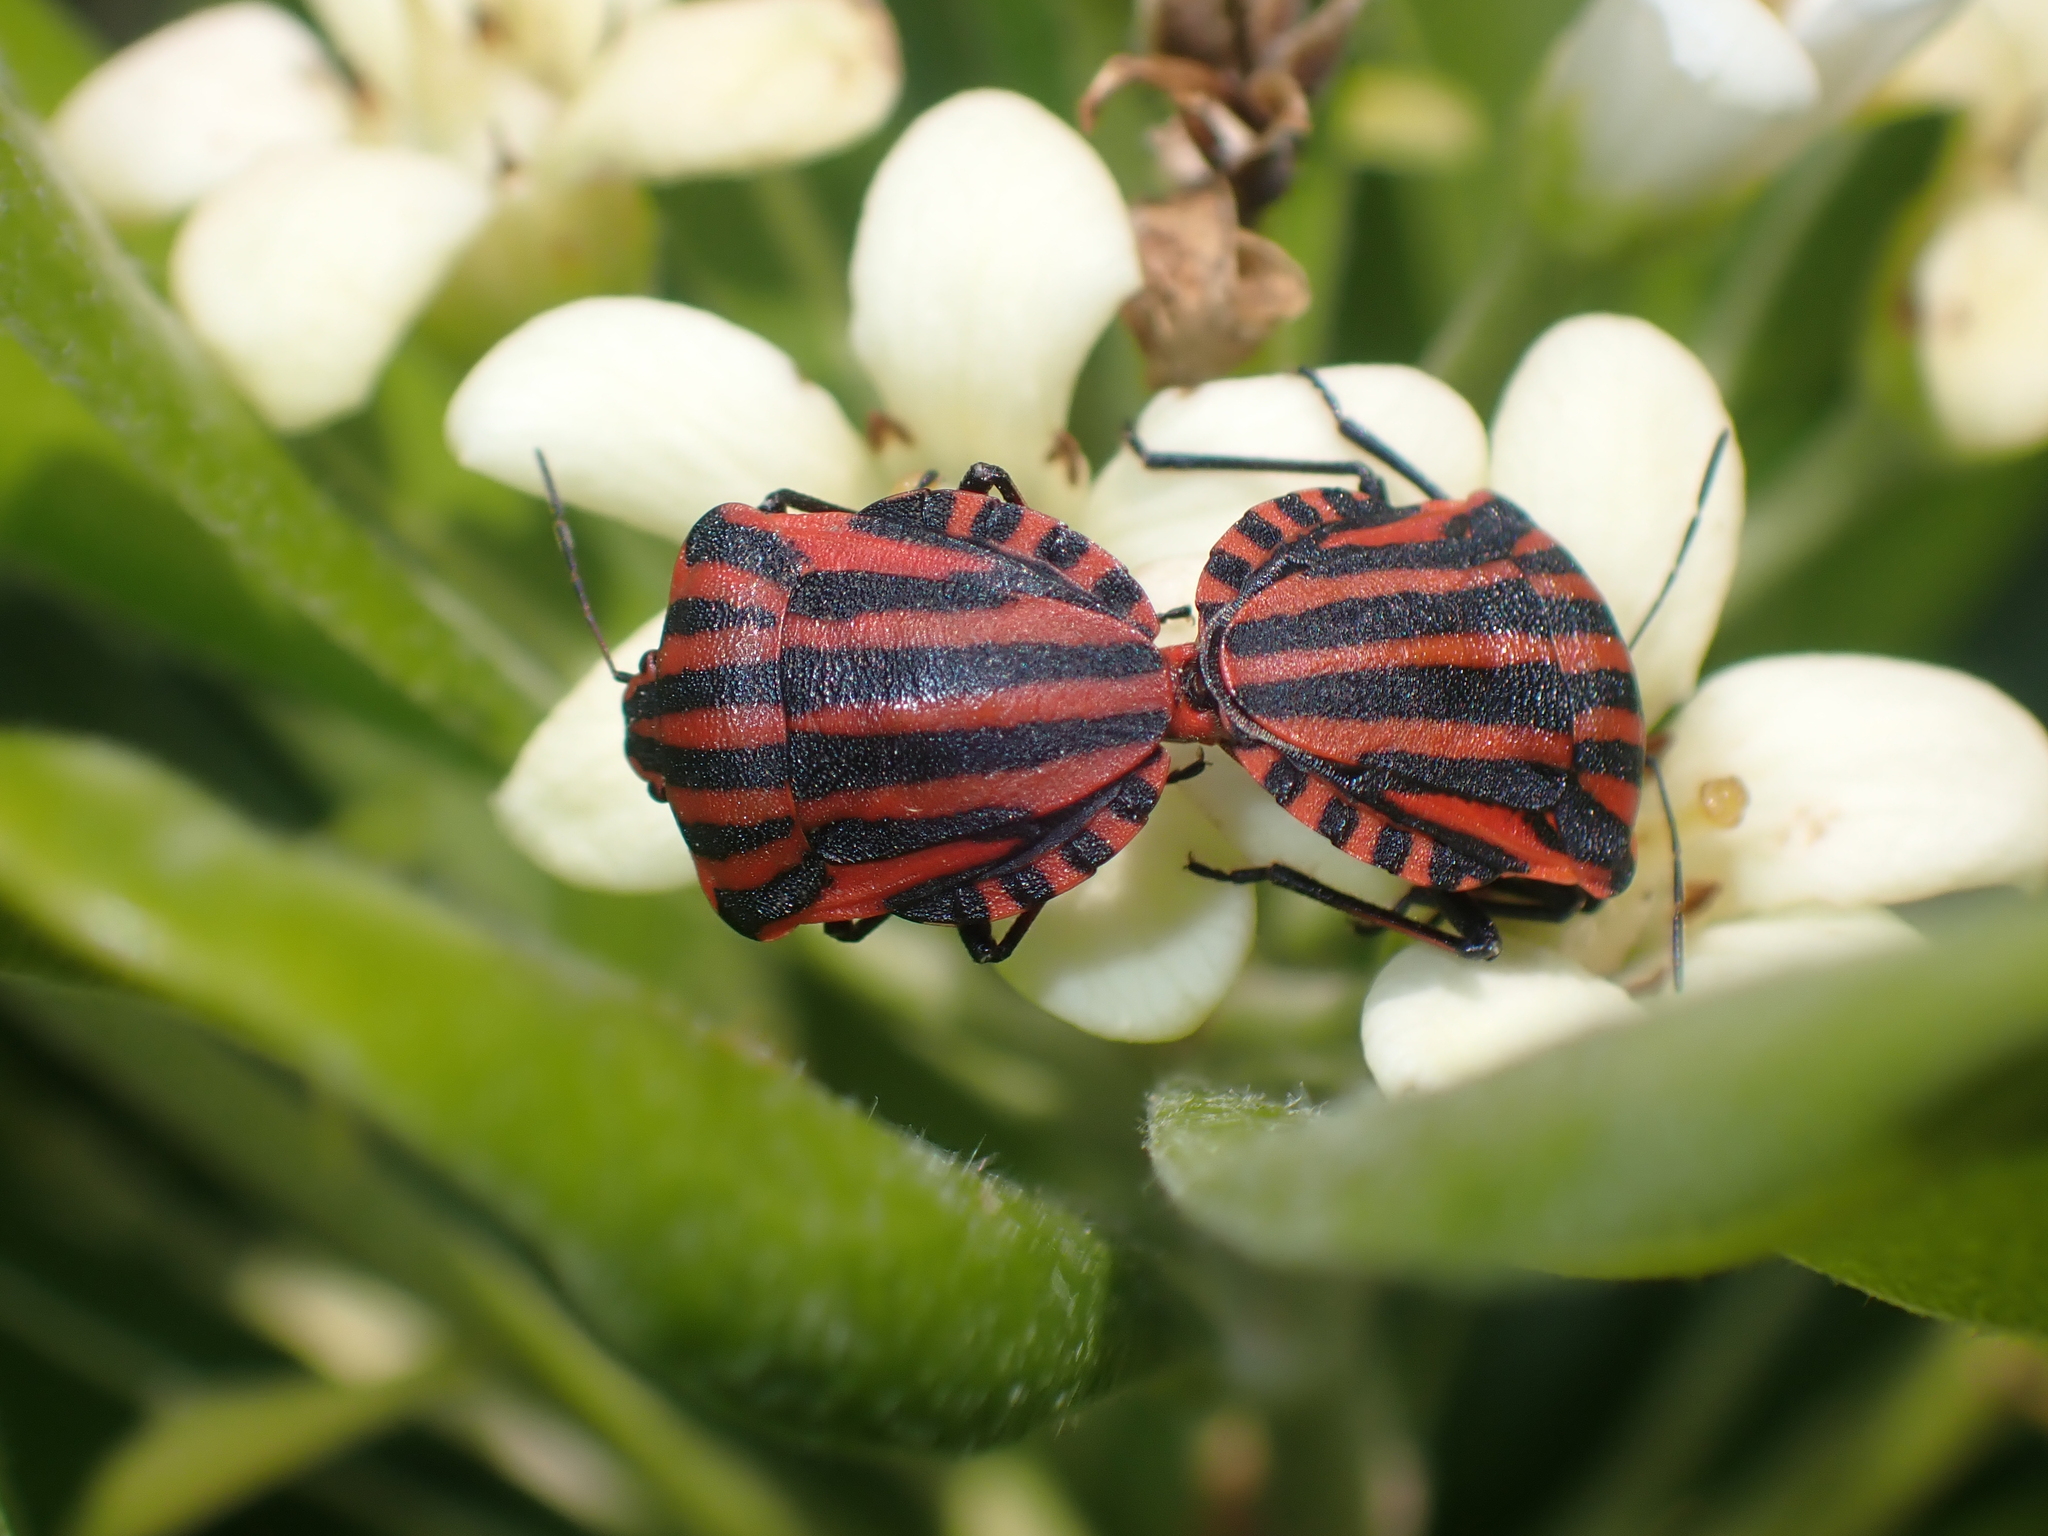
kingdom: Animalia
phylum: Arthropoda
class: Insecta
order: Hemiptera
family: Pentatomidae
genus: Graphosoma
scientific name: Graphosoma italicum
